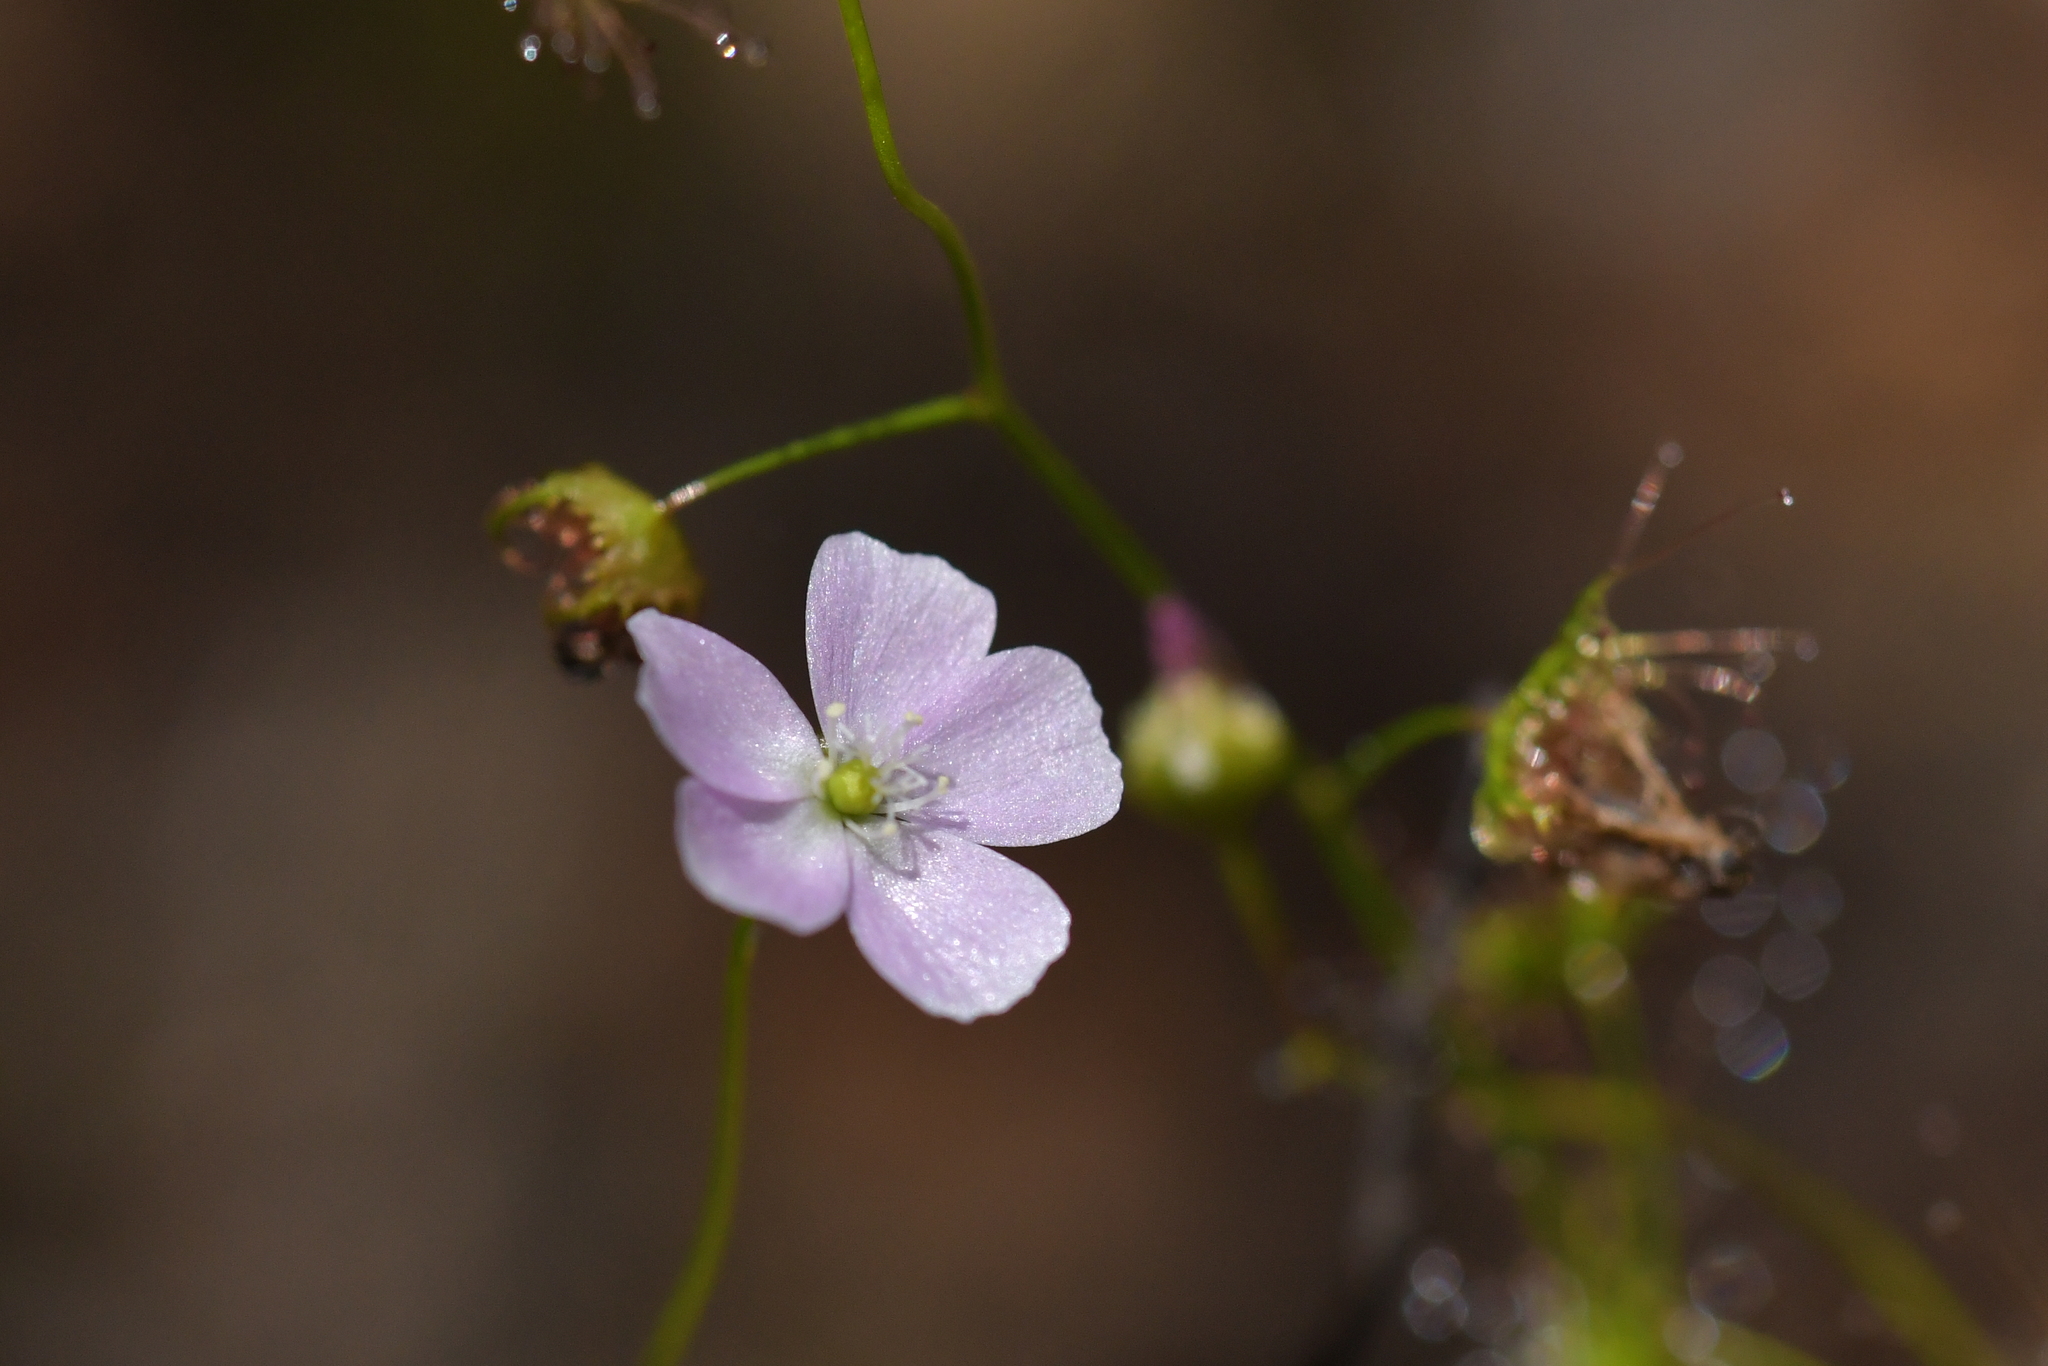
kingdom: Plantae
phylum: Tracheophyta
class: Magnoliopsida
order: Caryophyllales
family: Droseraceae
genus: Drosera
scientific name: Drosera peltata
